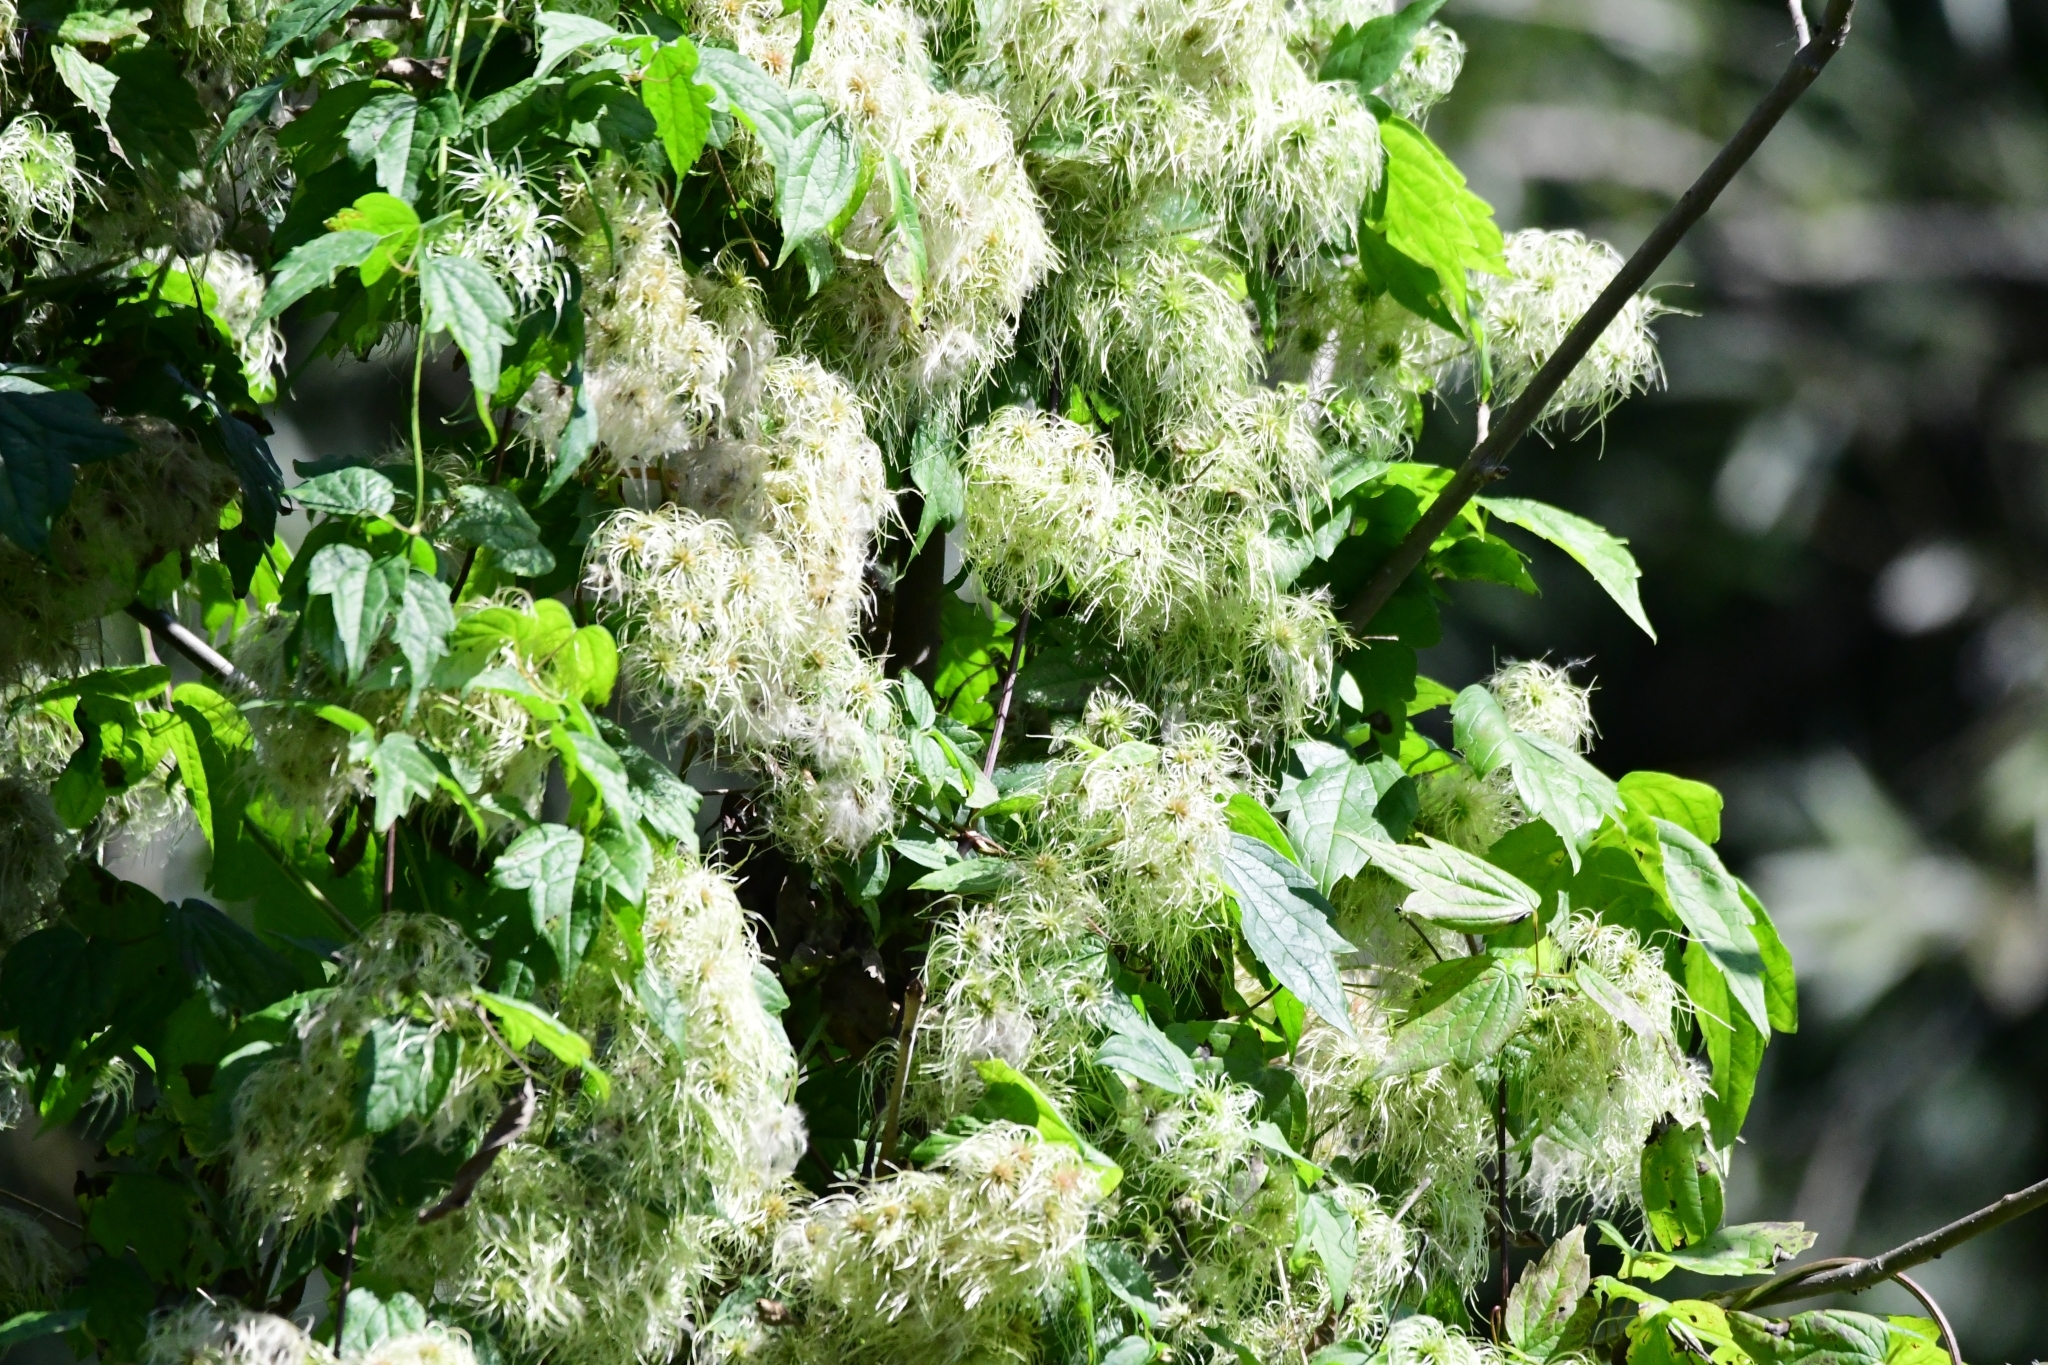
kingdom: Plantae
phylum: Tracheophyta
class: Magnoliopsida
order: Ranunculales
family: Ranunculaceae
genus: Clematis
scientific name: Clematis virginiana
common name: Virgin's-bower
